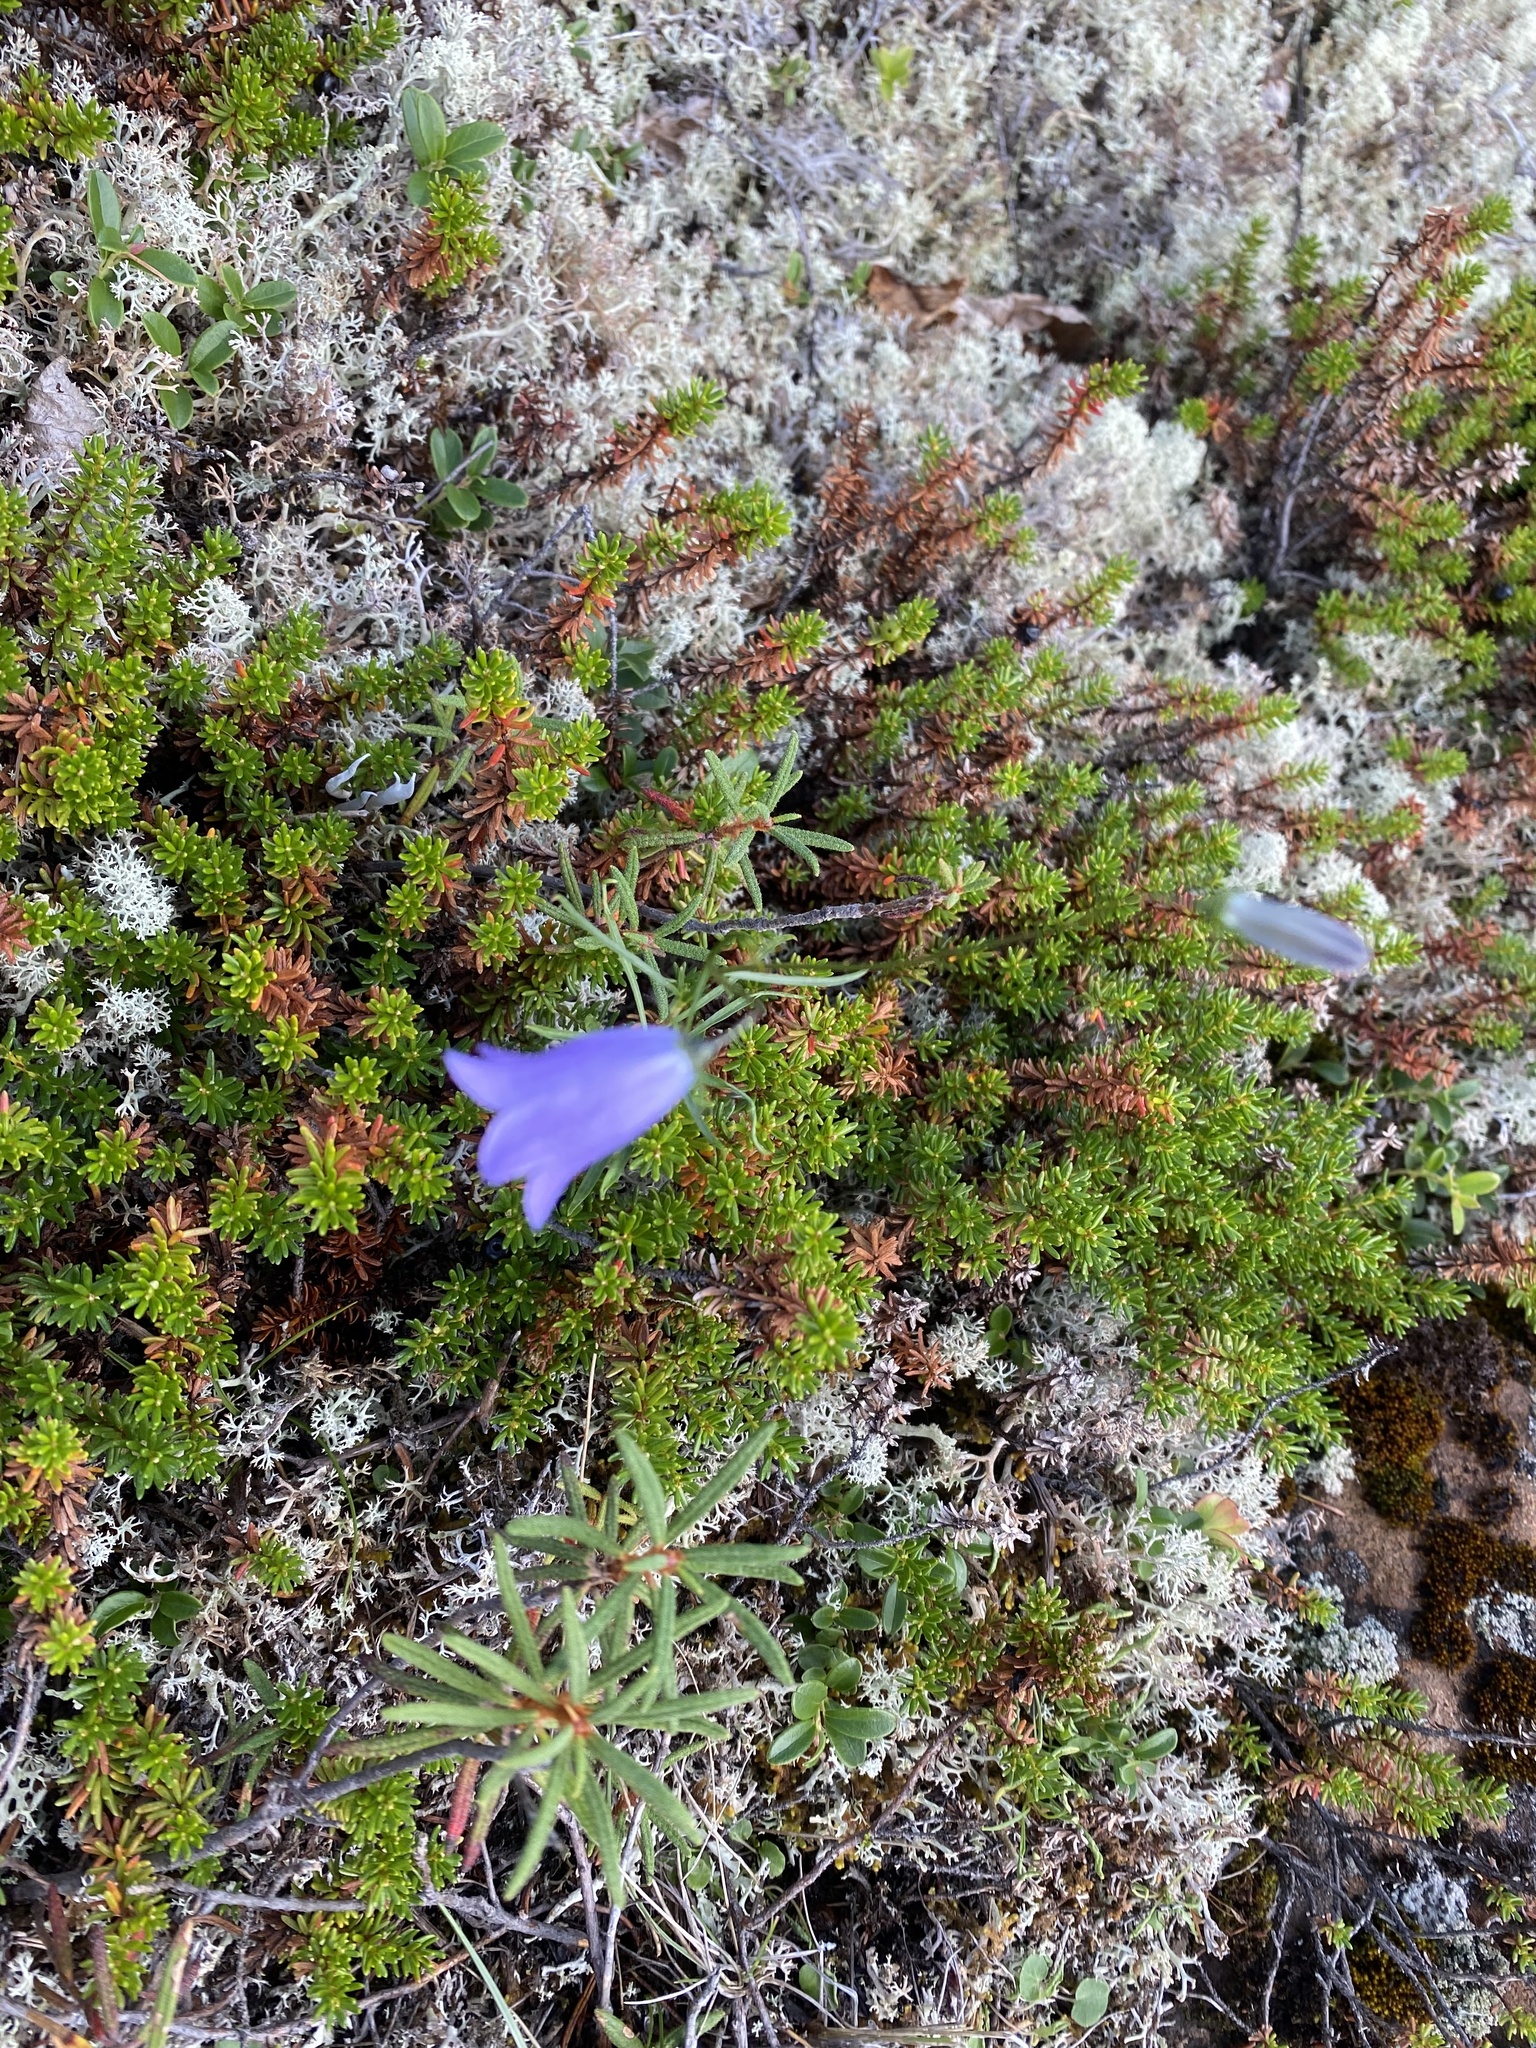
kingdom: Plantae
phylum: Tracheophyta
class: Magnoliopsida
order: Asterales
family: Campanulaceae
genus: Campanula
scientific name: Campanula rotundifolia
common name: Harebell
